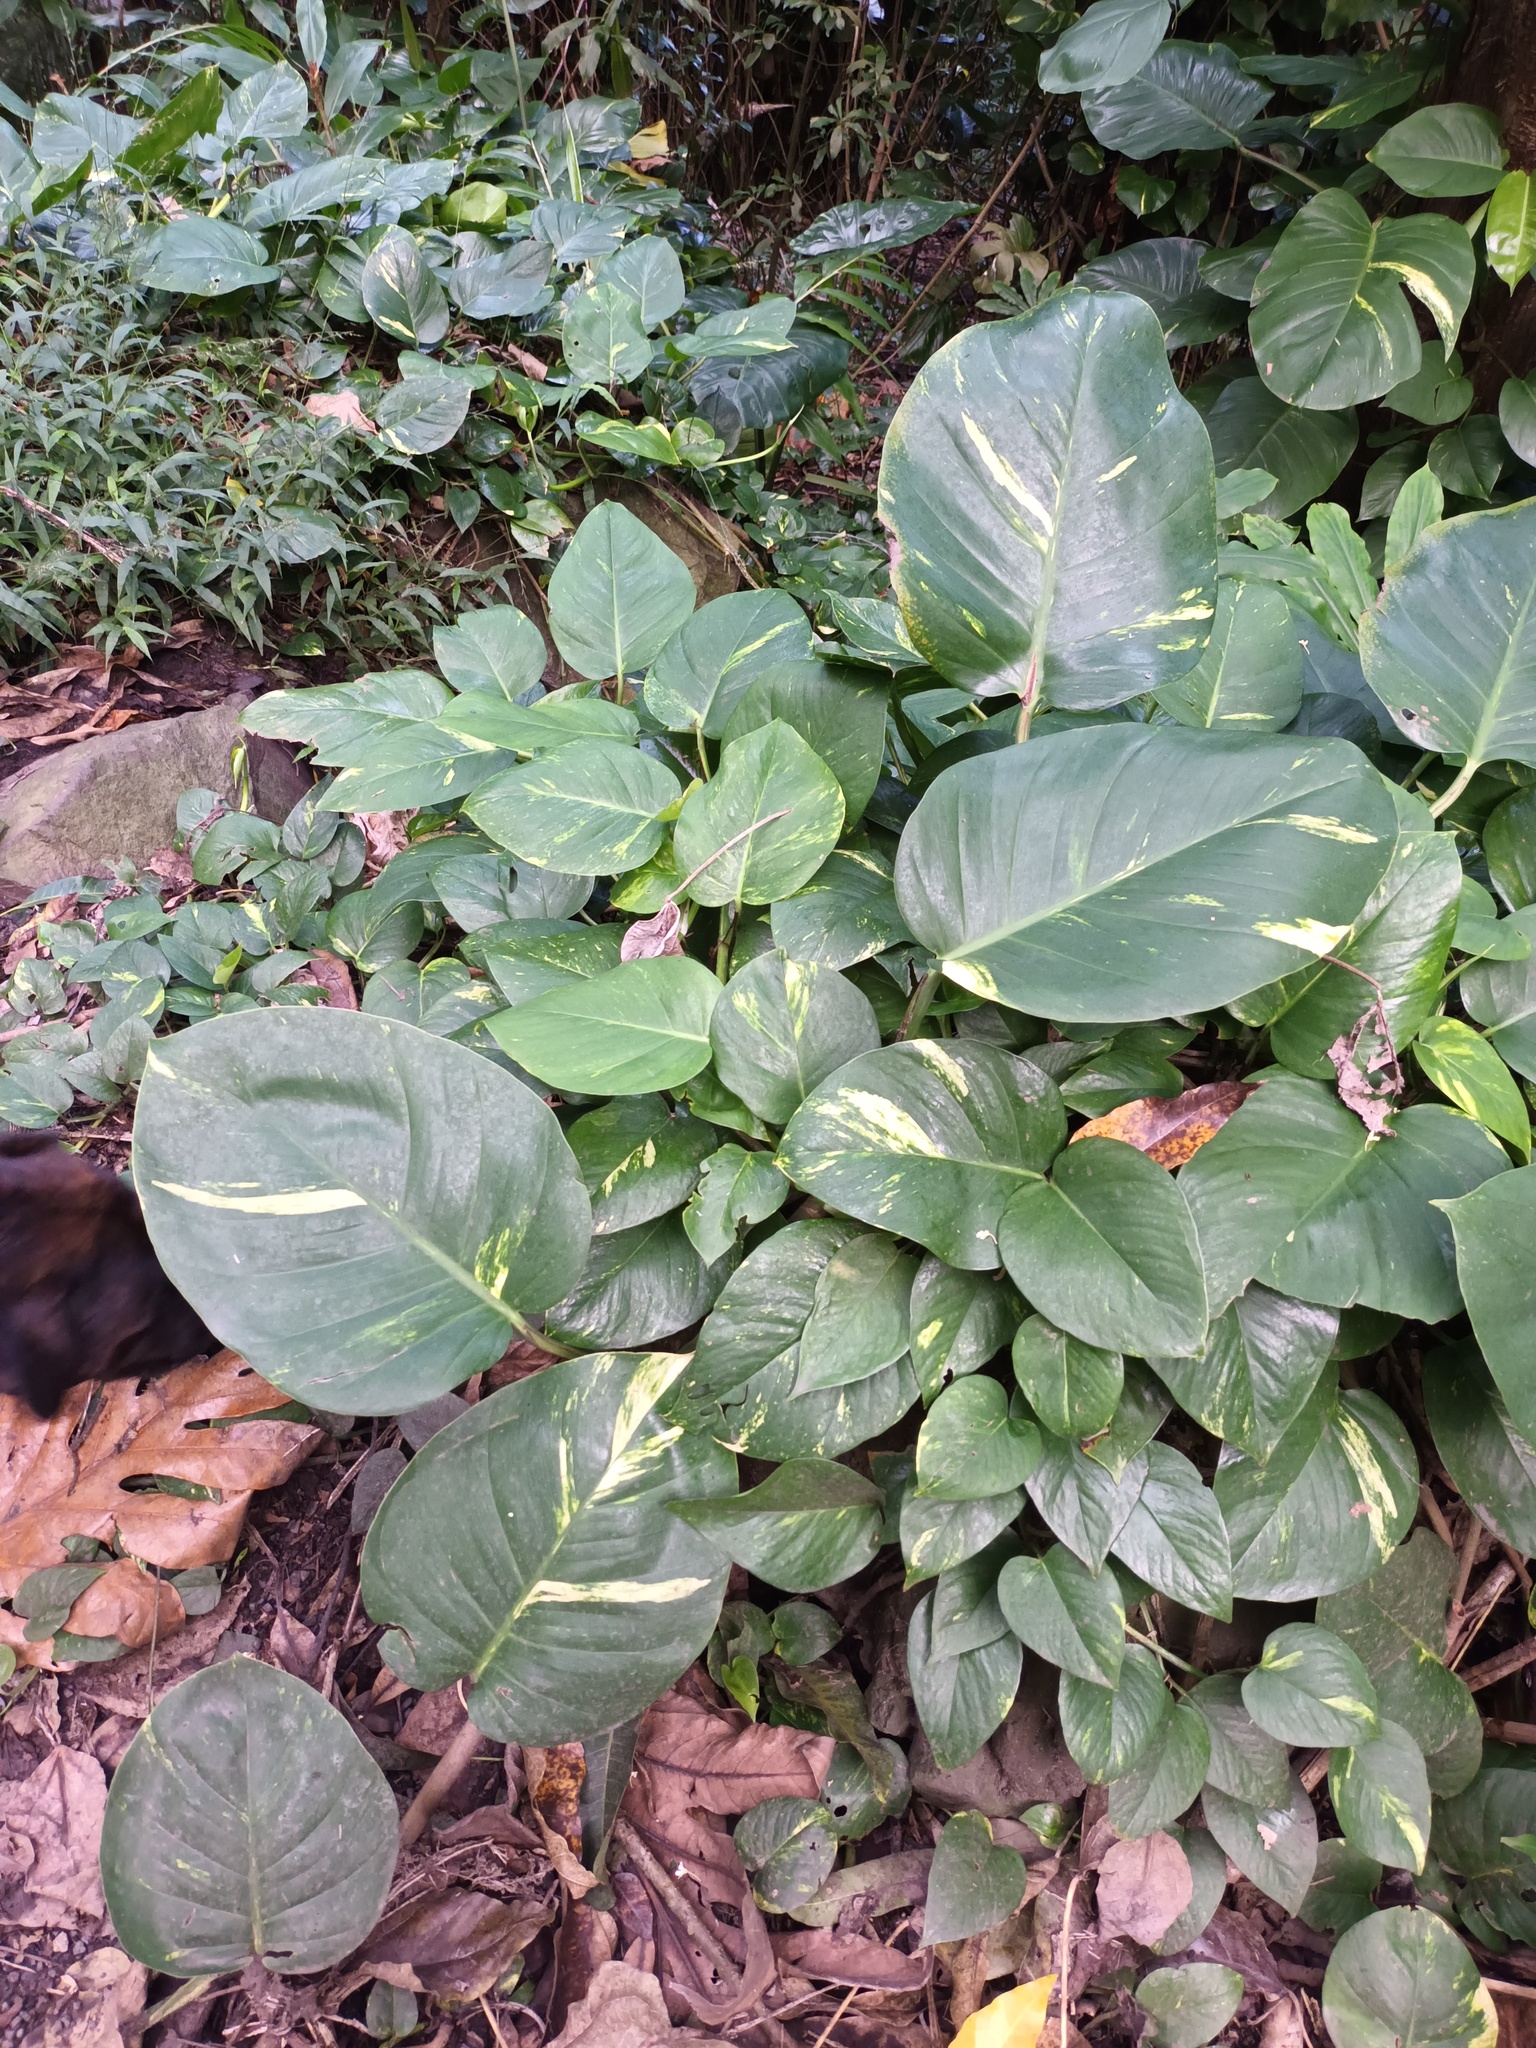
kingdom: Plantae
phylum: Tracheophyta
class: Liliopsida
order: Alismatales
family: Araceae
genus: Epipremnum
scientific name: Epipremnum aureum
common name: Golden hunter's-robe
